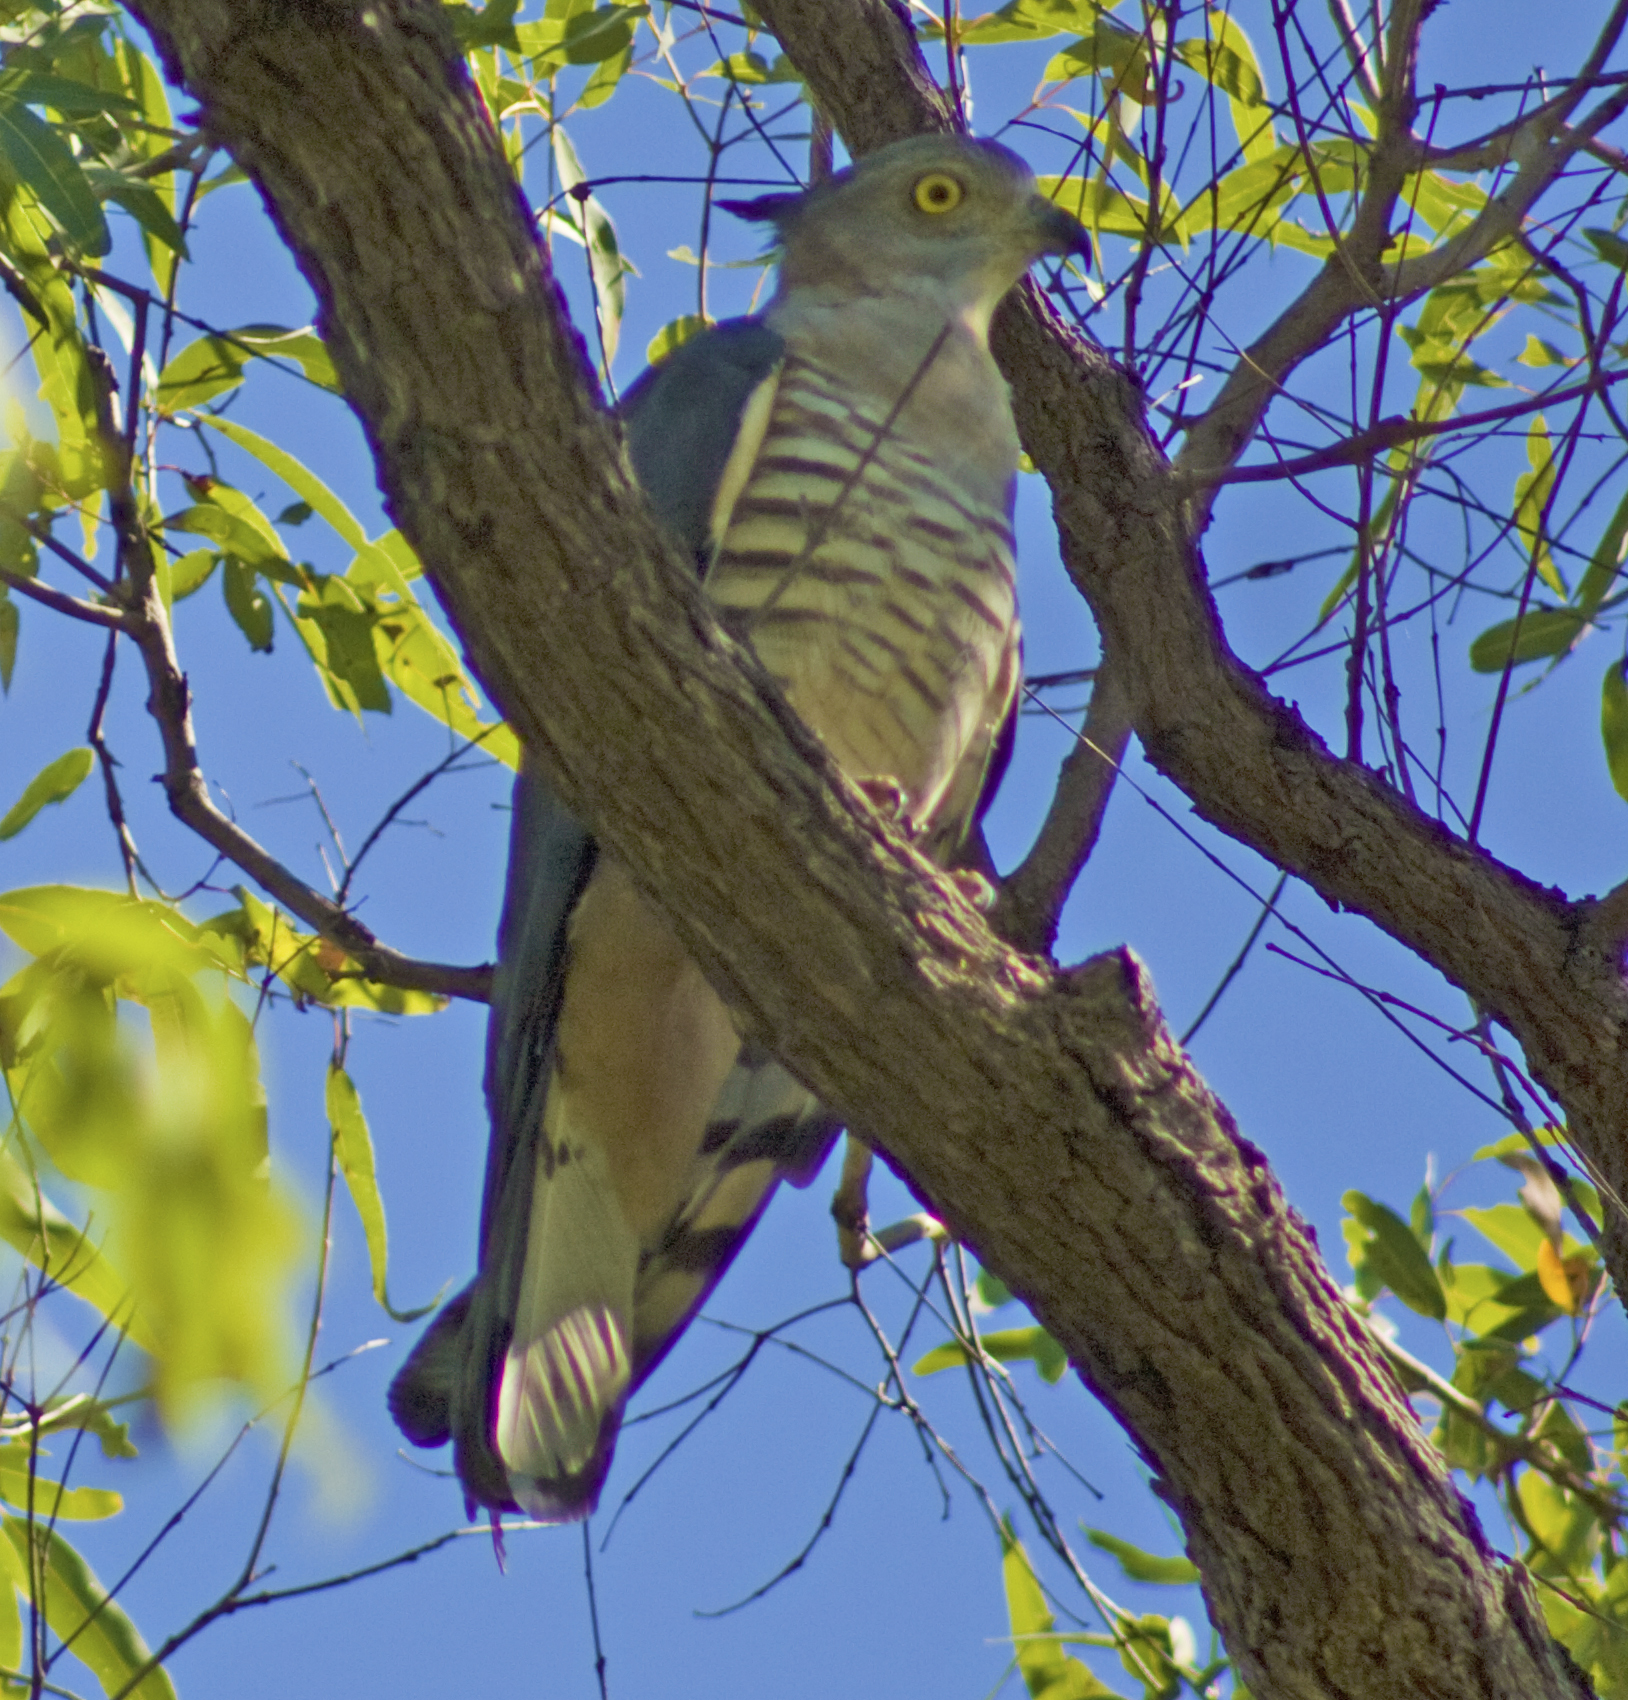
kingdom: Animalia
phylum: Chordata
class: Aves
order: Accipitriformes
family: Accipitridae
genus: Aviceda
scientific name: Aviceda subcristata
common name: Pacific baza
